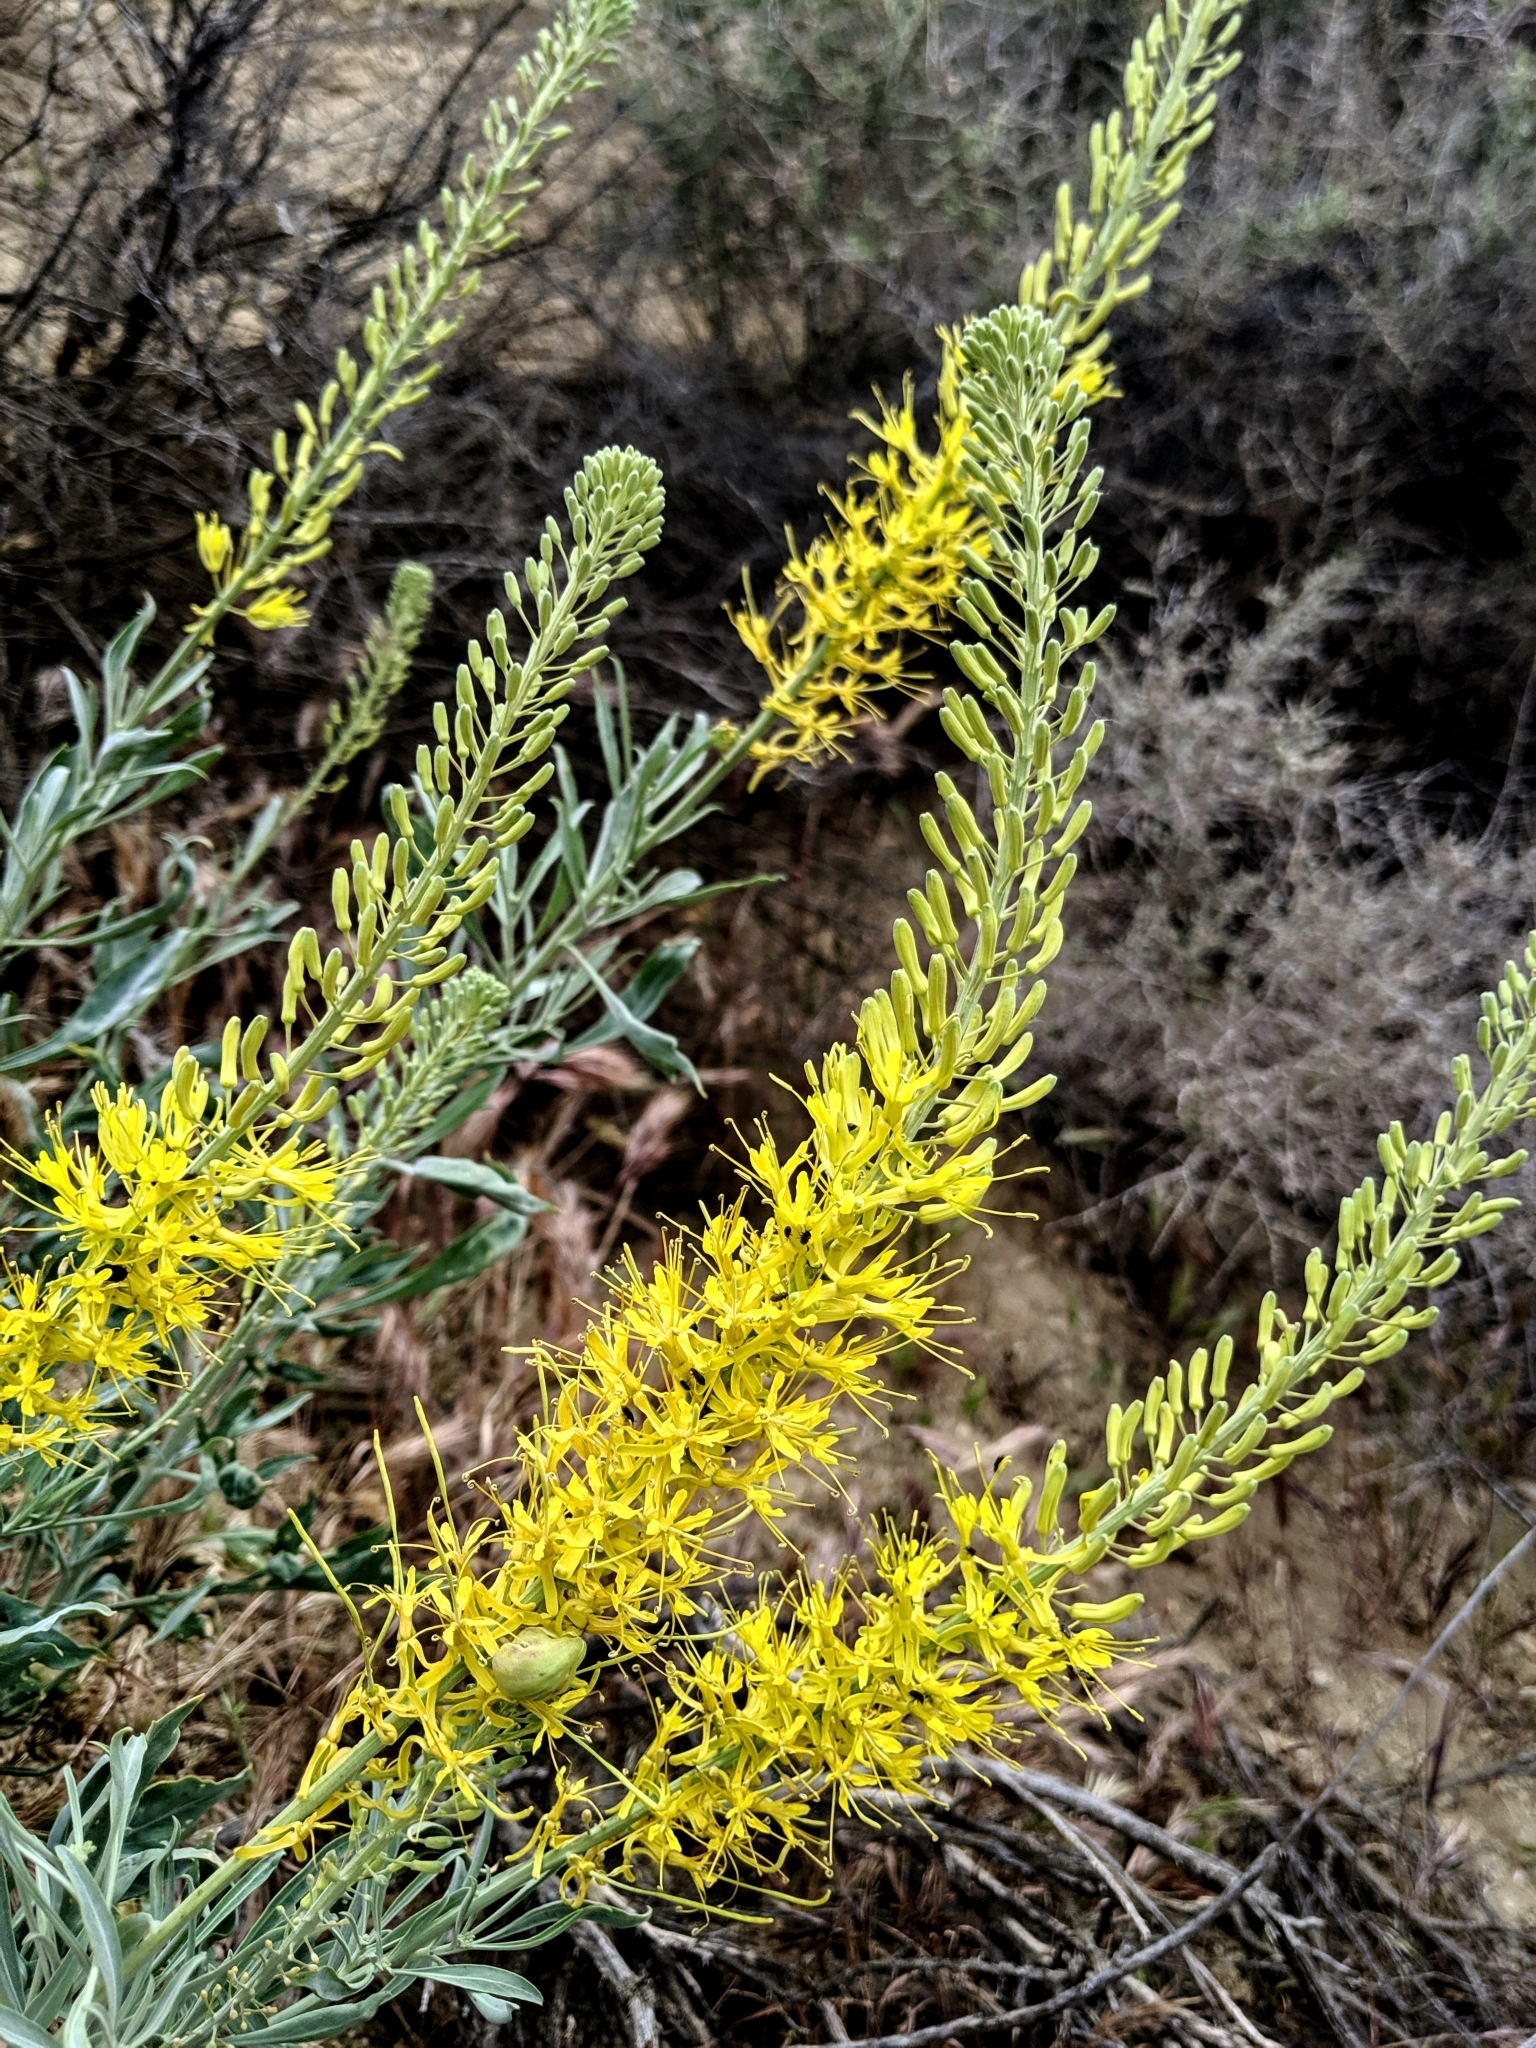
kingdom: Plantae
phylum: Tracheophyta
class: Magnoliopsida
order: Brassicales
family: Brassicaceae
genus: Stanleya
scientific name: Stanleya pinnata
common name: Prince's-plume
